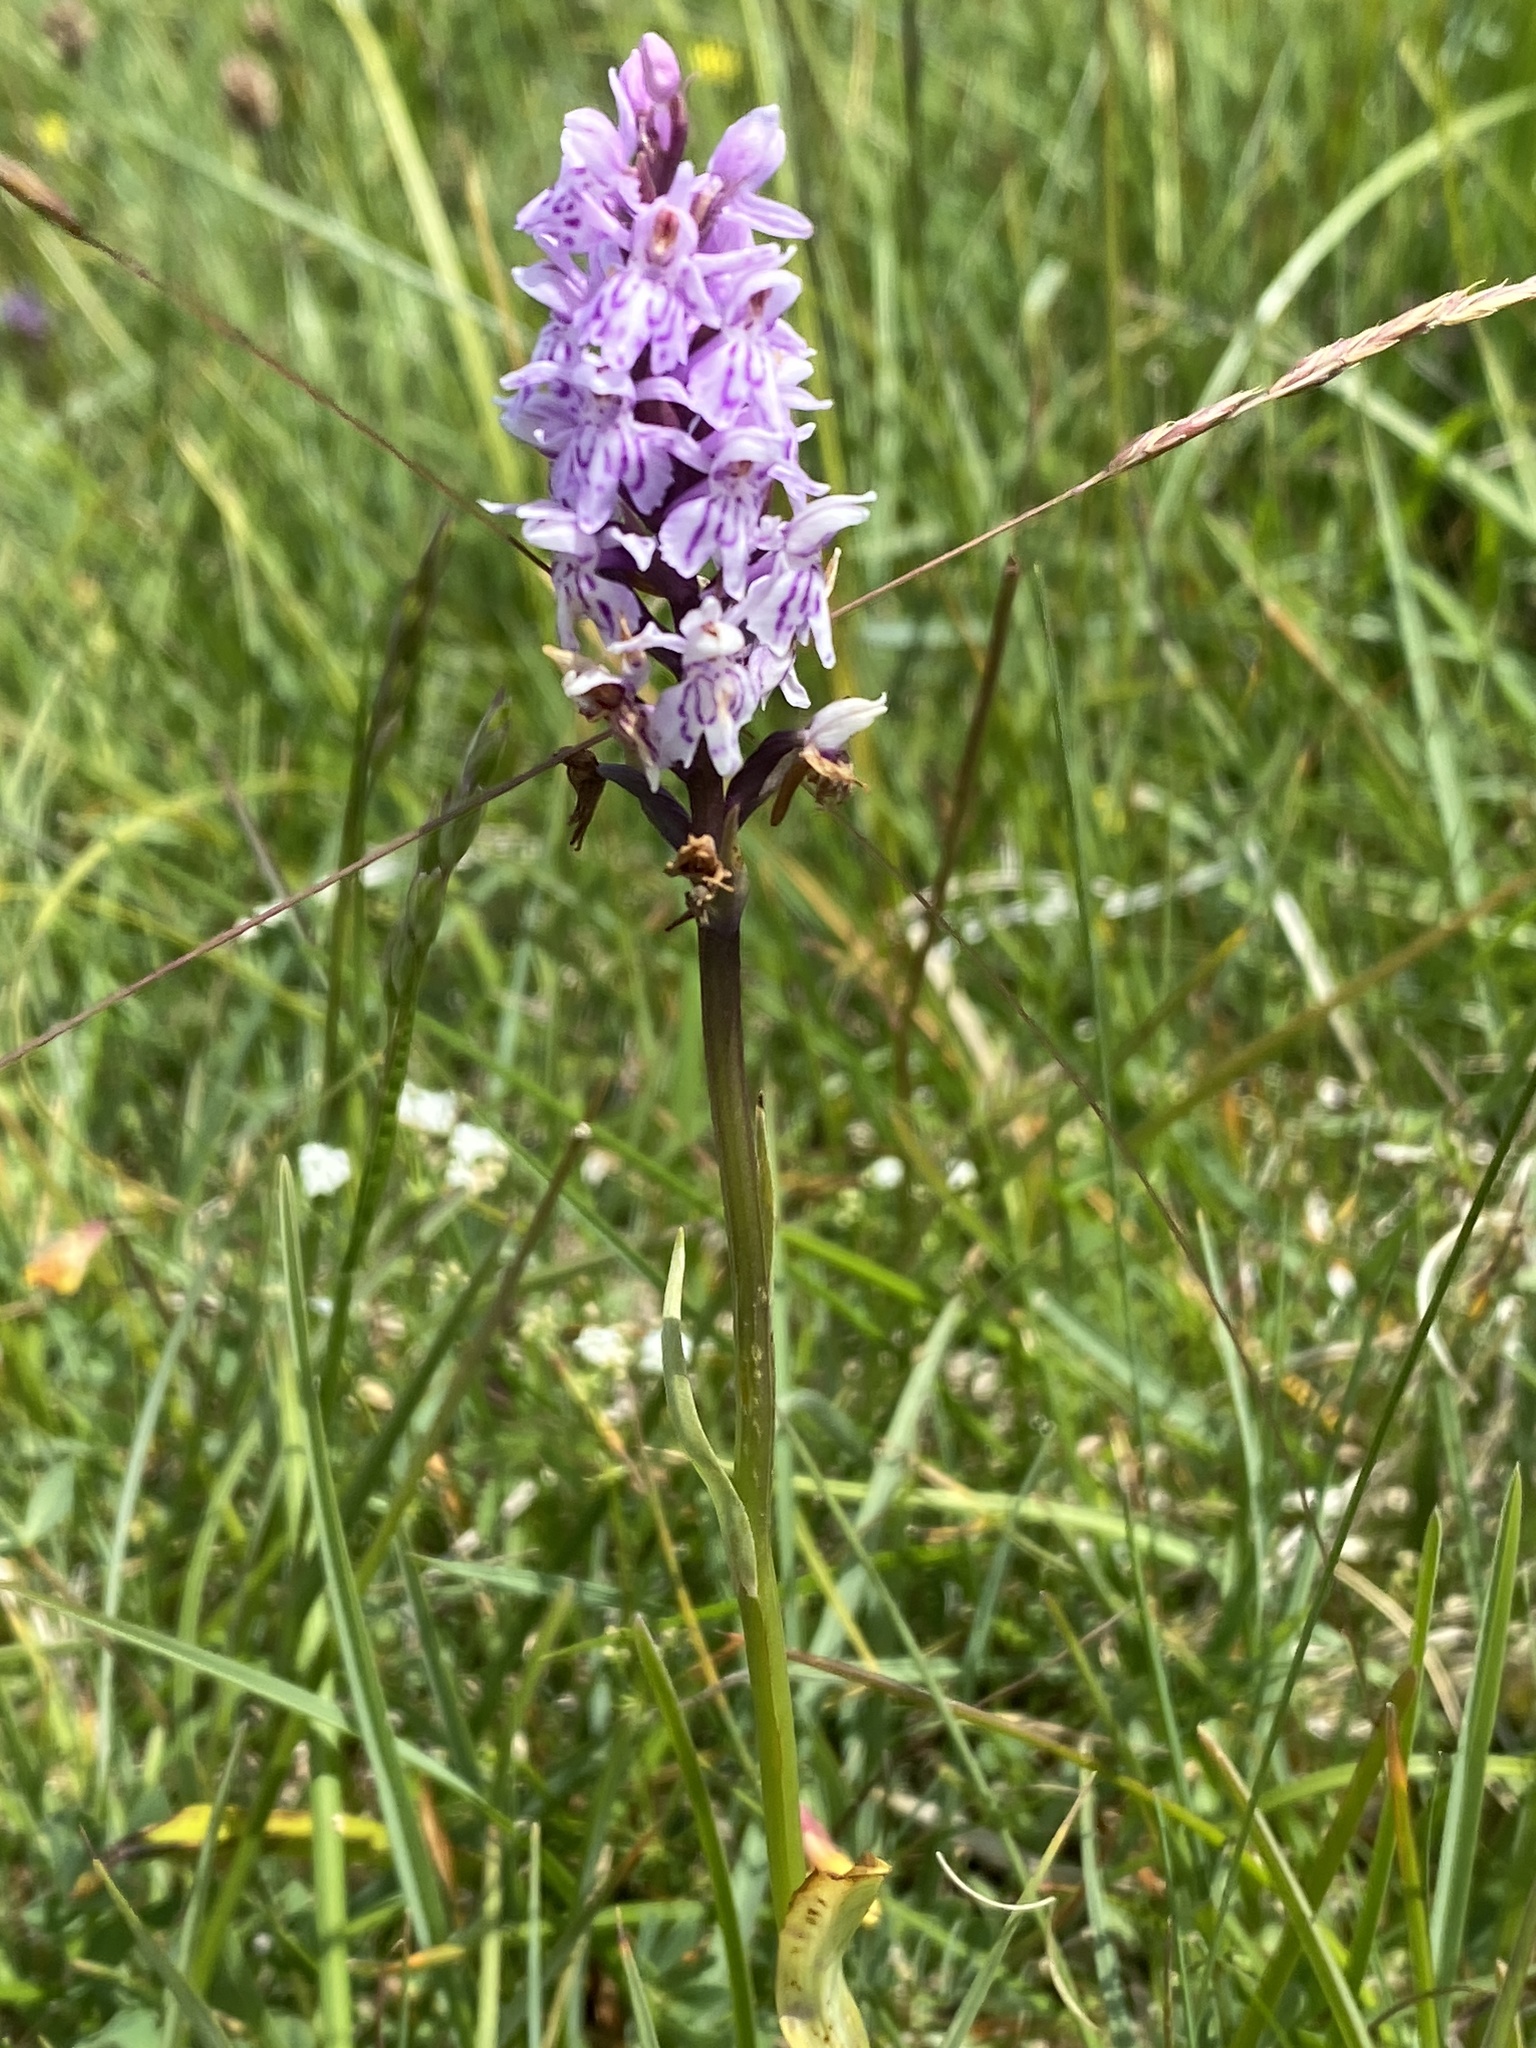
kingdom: Plantae
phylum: Tracheophyta
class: Liliopsida
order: Asparagales
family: Orchidaceae
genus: Dactylorhiza
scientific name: Dactylorhiza maculata
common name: Heath spotted-orchid
